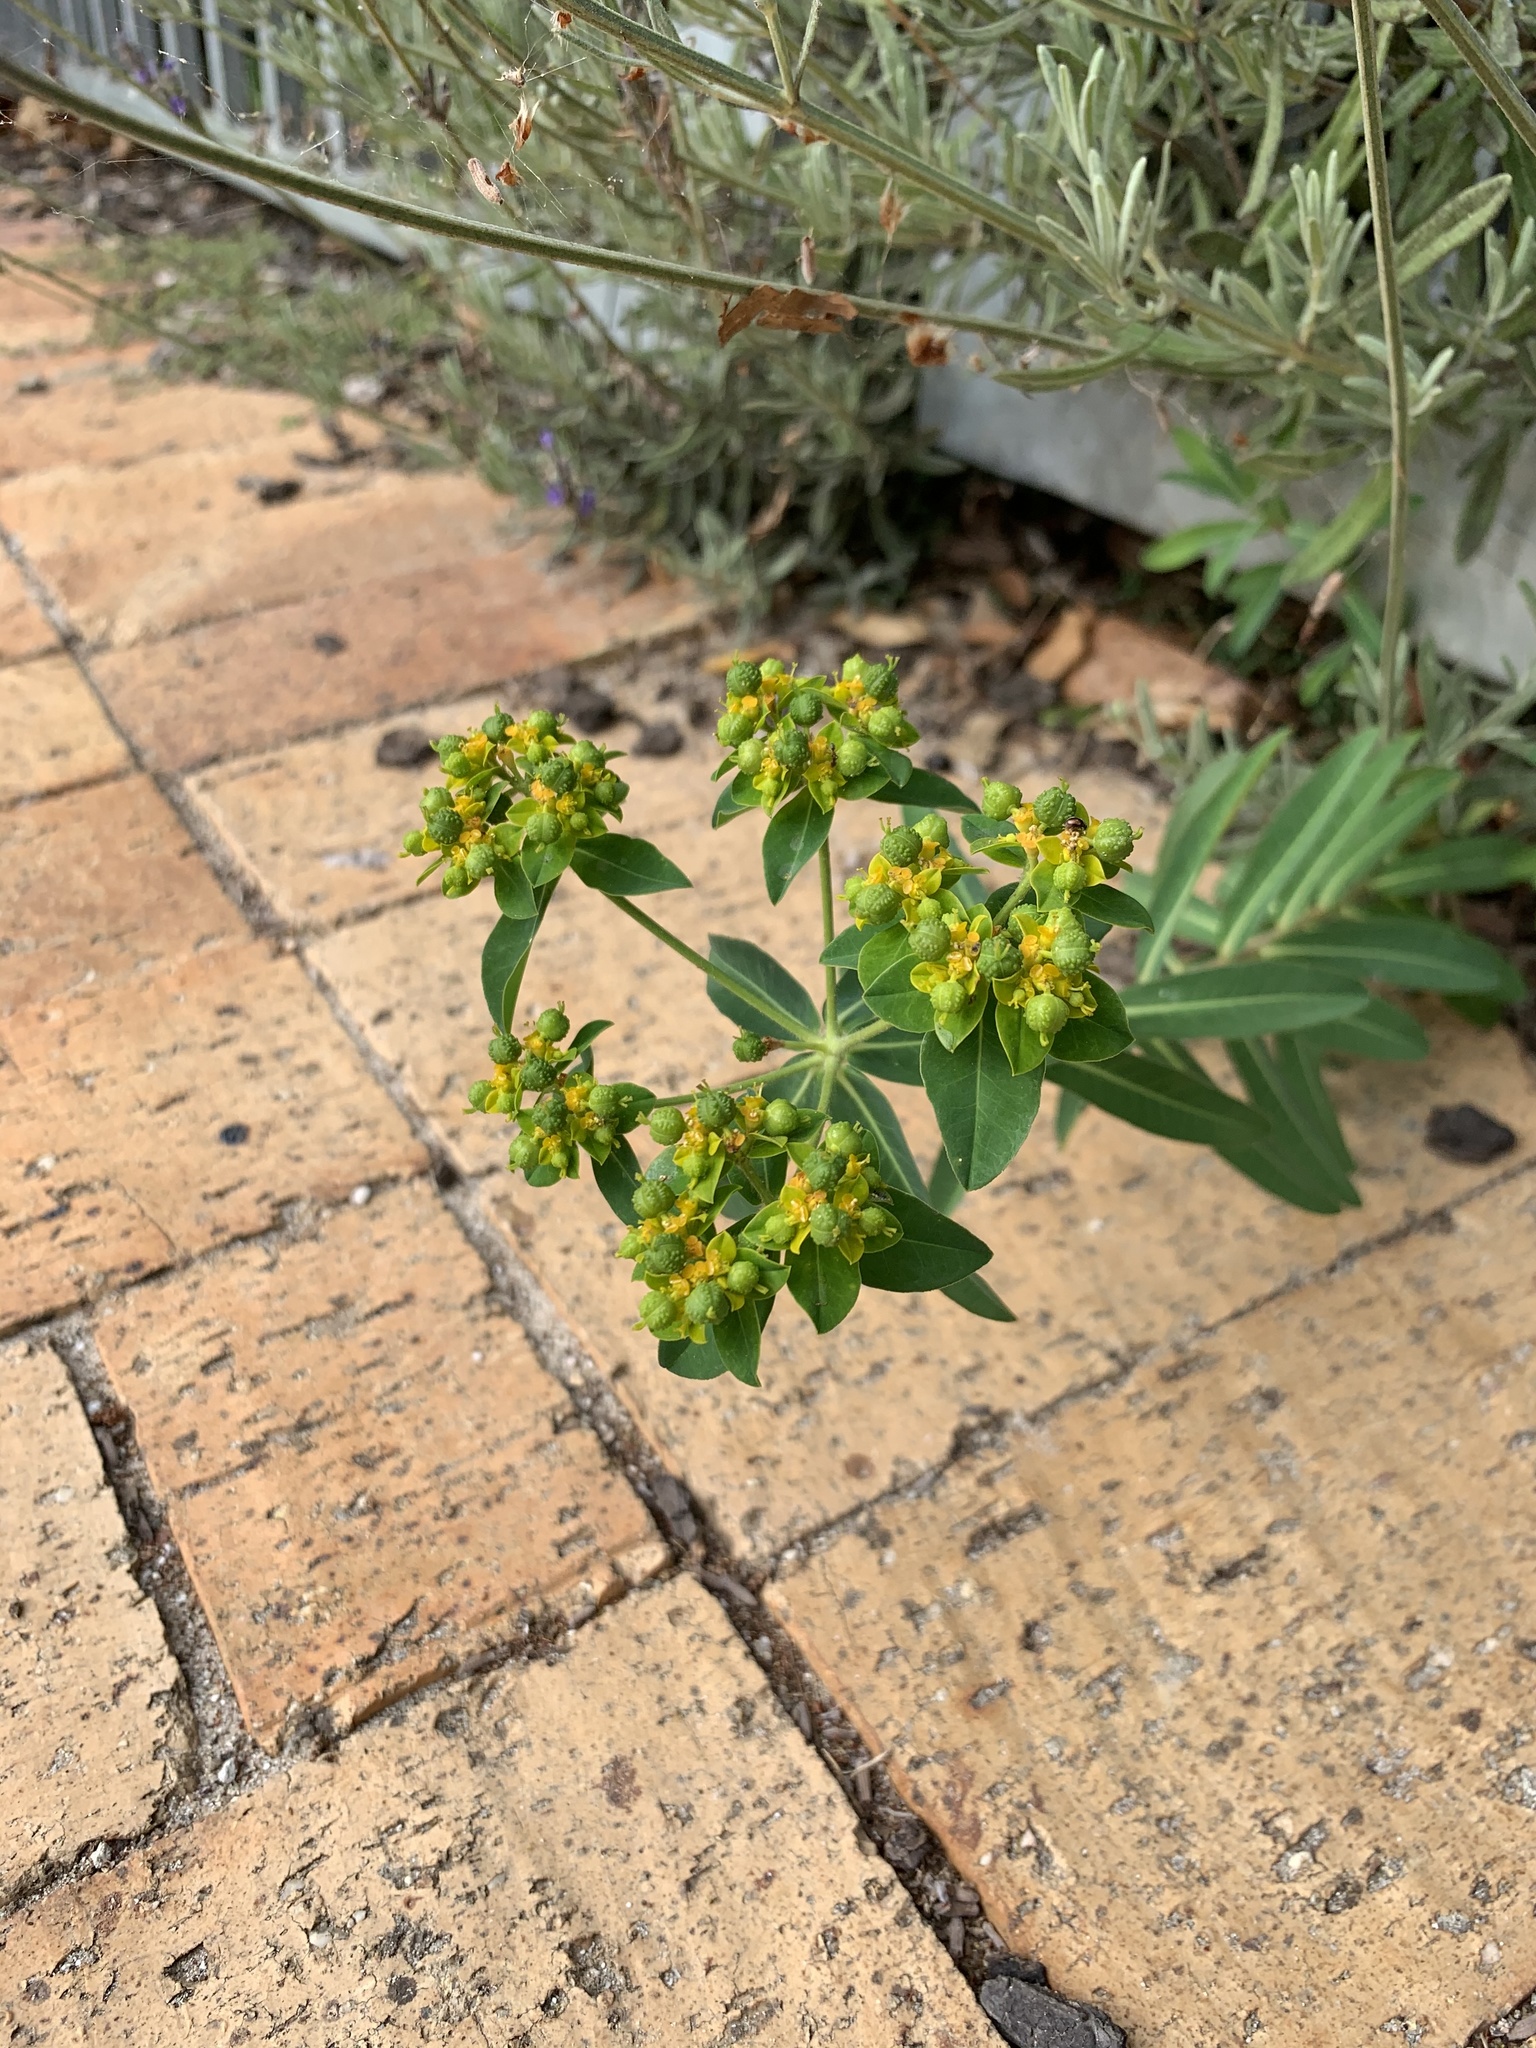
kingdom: Plantae
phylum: Tracheophyta
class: Magnoliopsida
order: Malpighiales
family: Euphorbiaceae
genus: Euphorbia
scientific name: Euphorbia oblongata
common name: Balkan spurge
